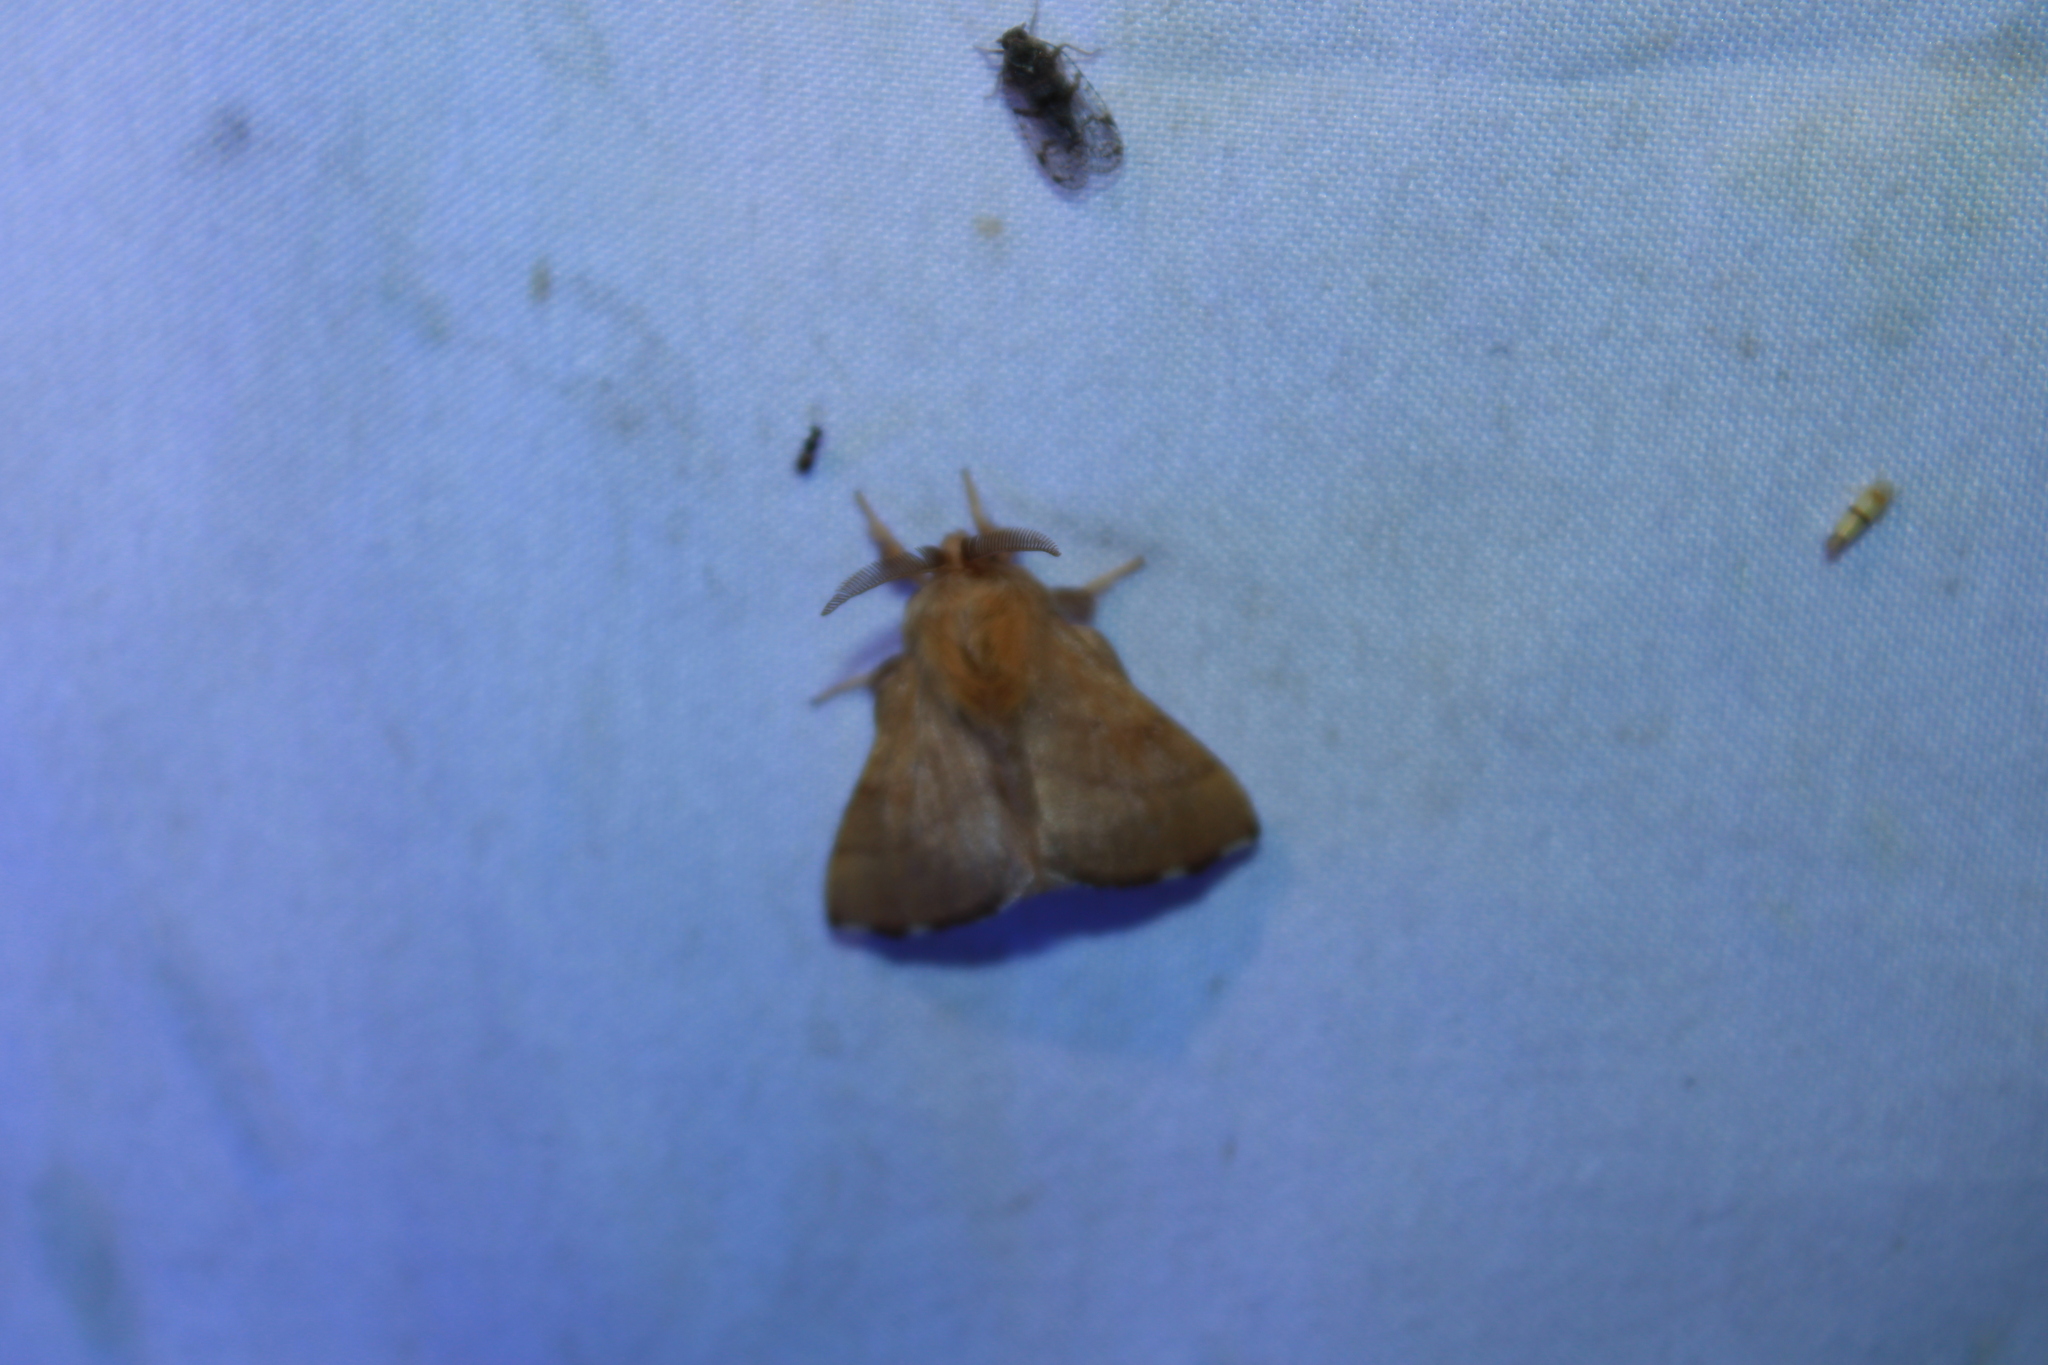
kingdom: Animalia
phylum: Arthropoda
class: Insecta
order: Lepidoptera
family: Lasiocampidae
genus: Malacosoma
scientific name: Malacosoma disstria
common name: Forest tent caterpillar
